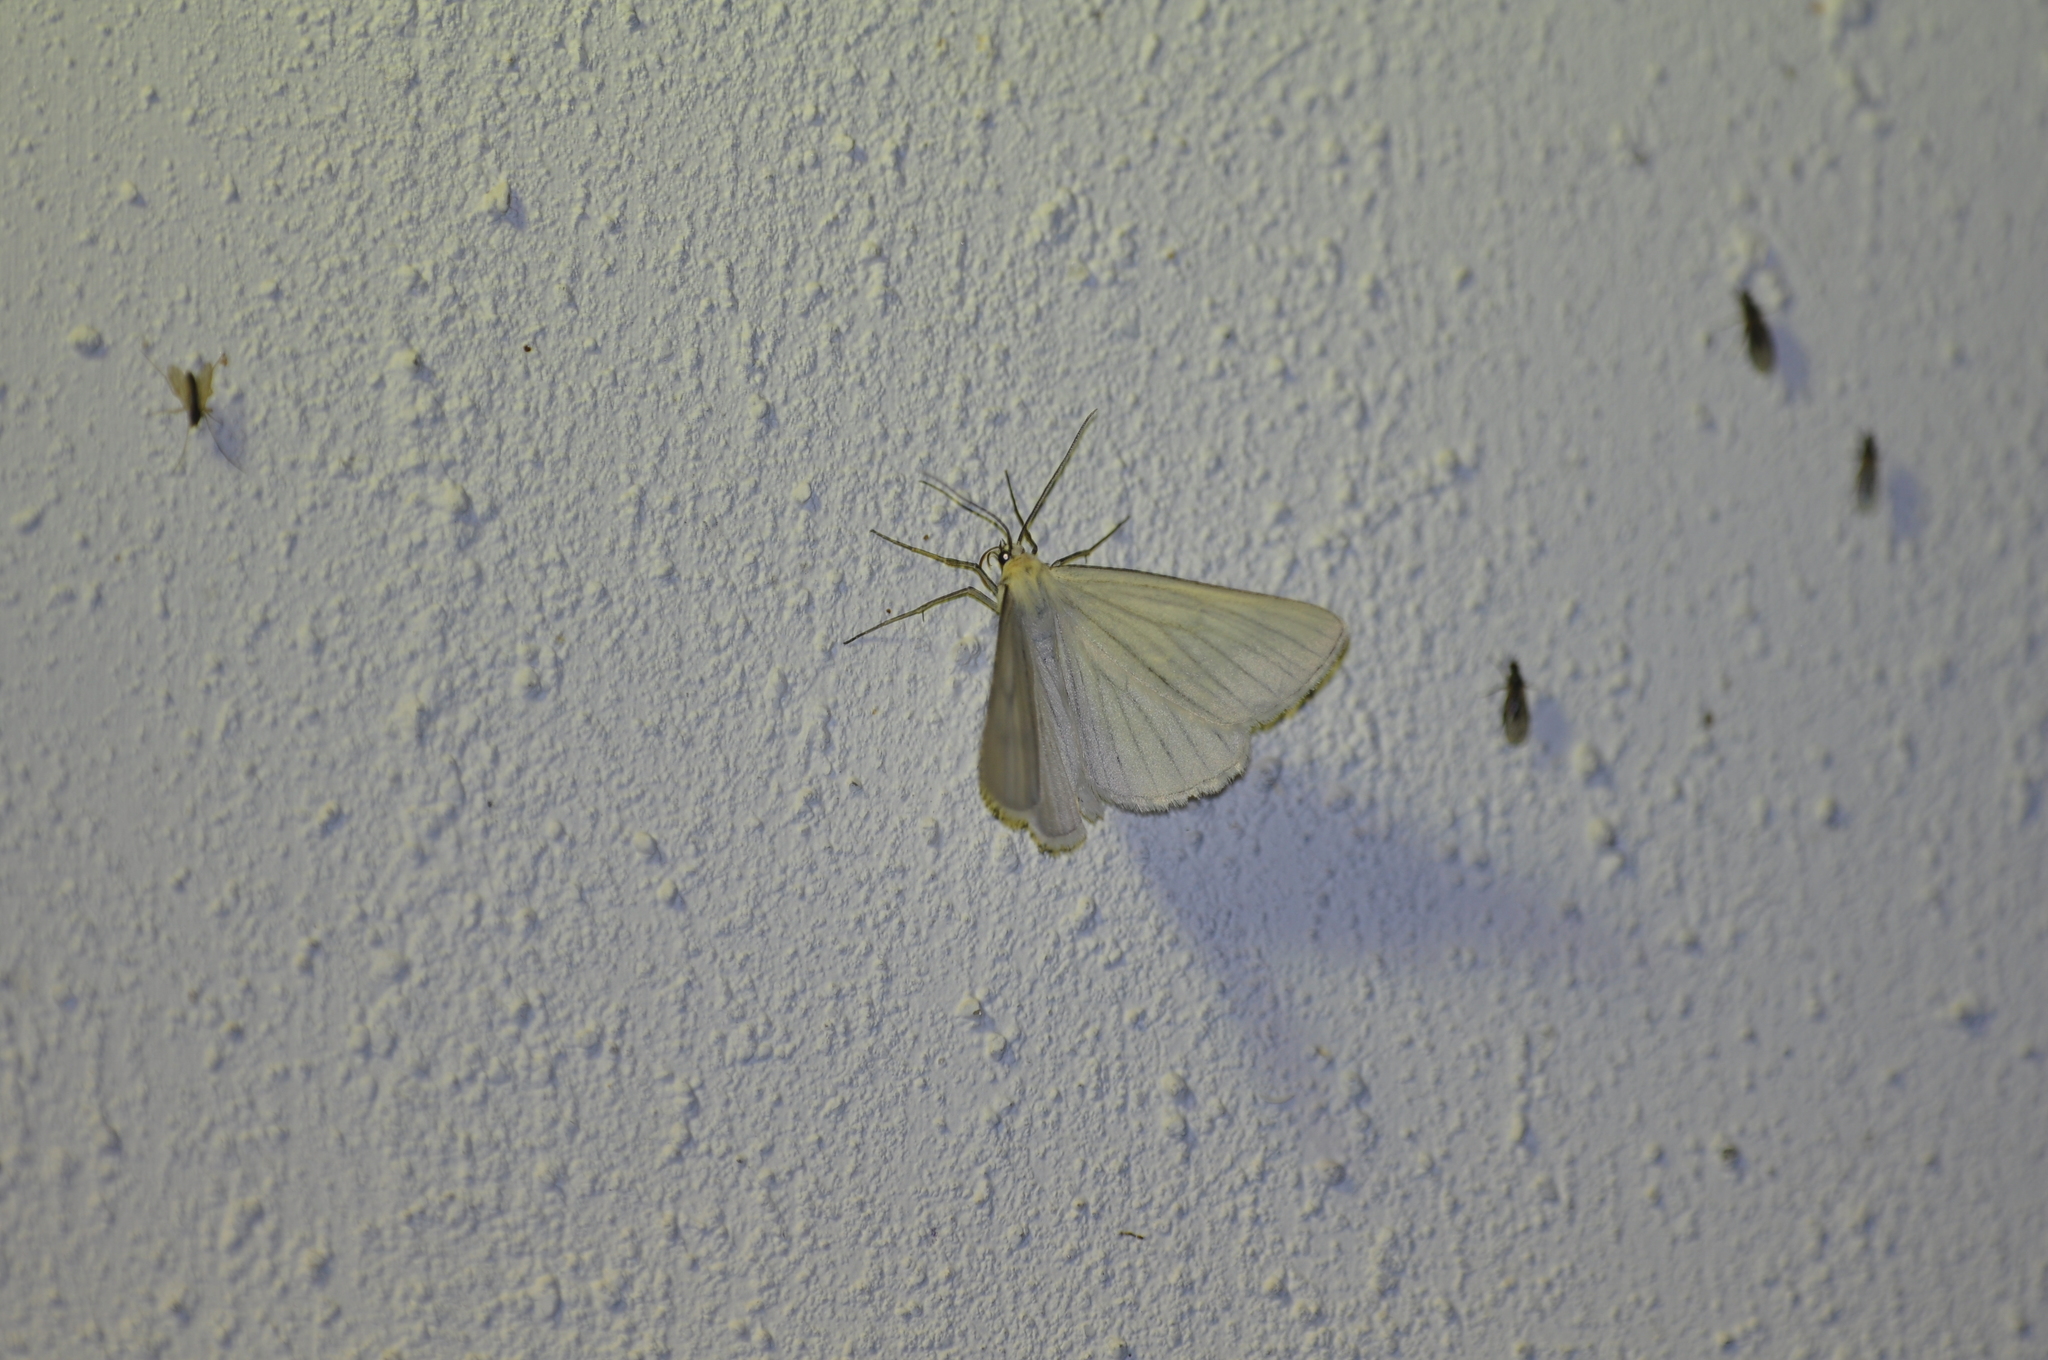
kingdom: Animalia
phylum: Arthropoda
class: Insecta
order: Lepidoptera
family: Geometridae
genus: Siona
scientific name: Siona lineata
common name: Black-veined moth
